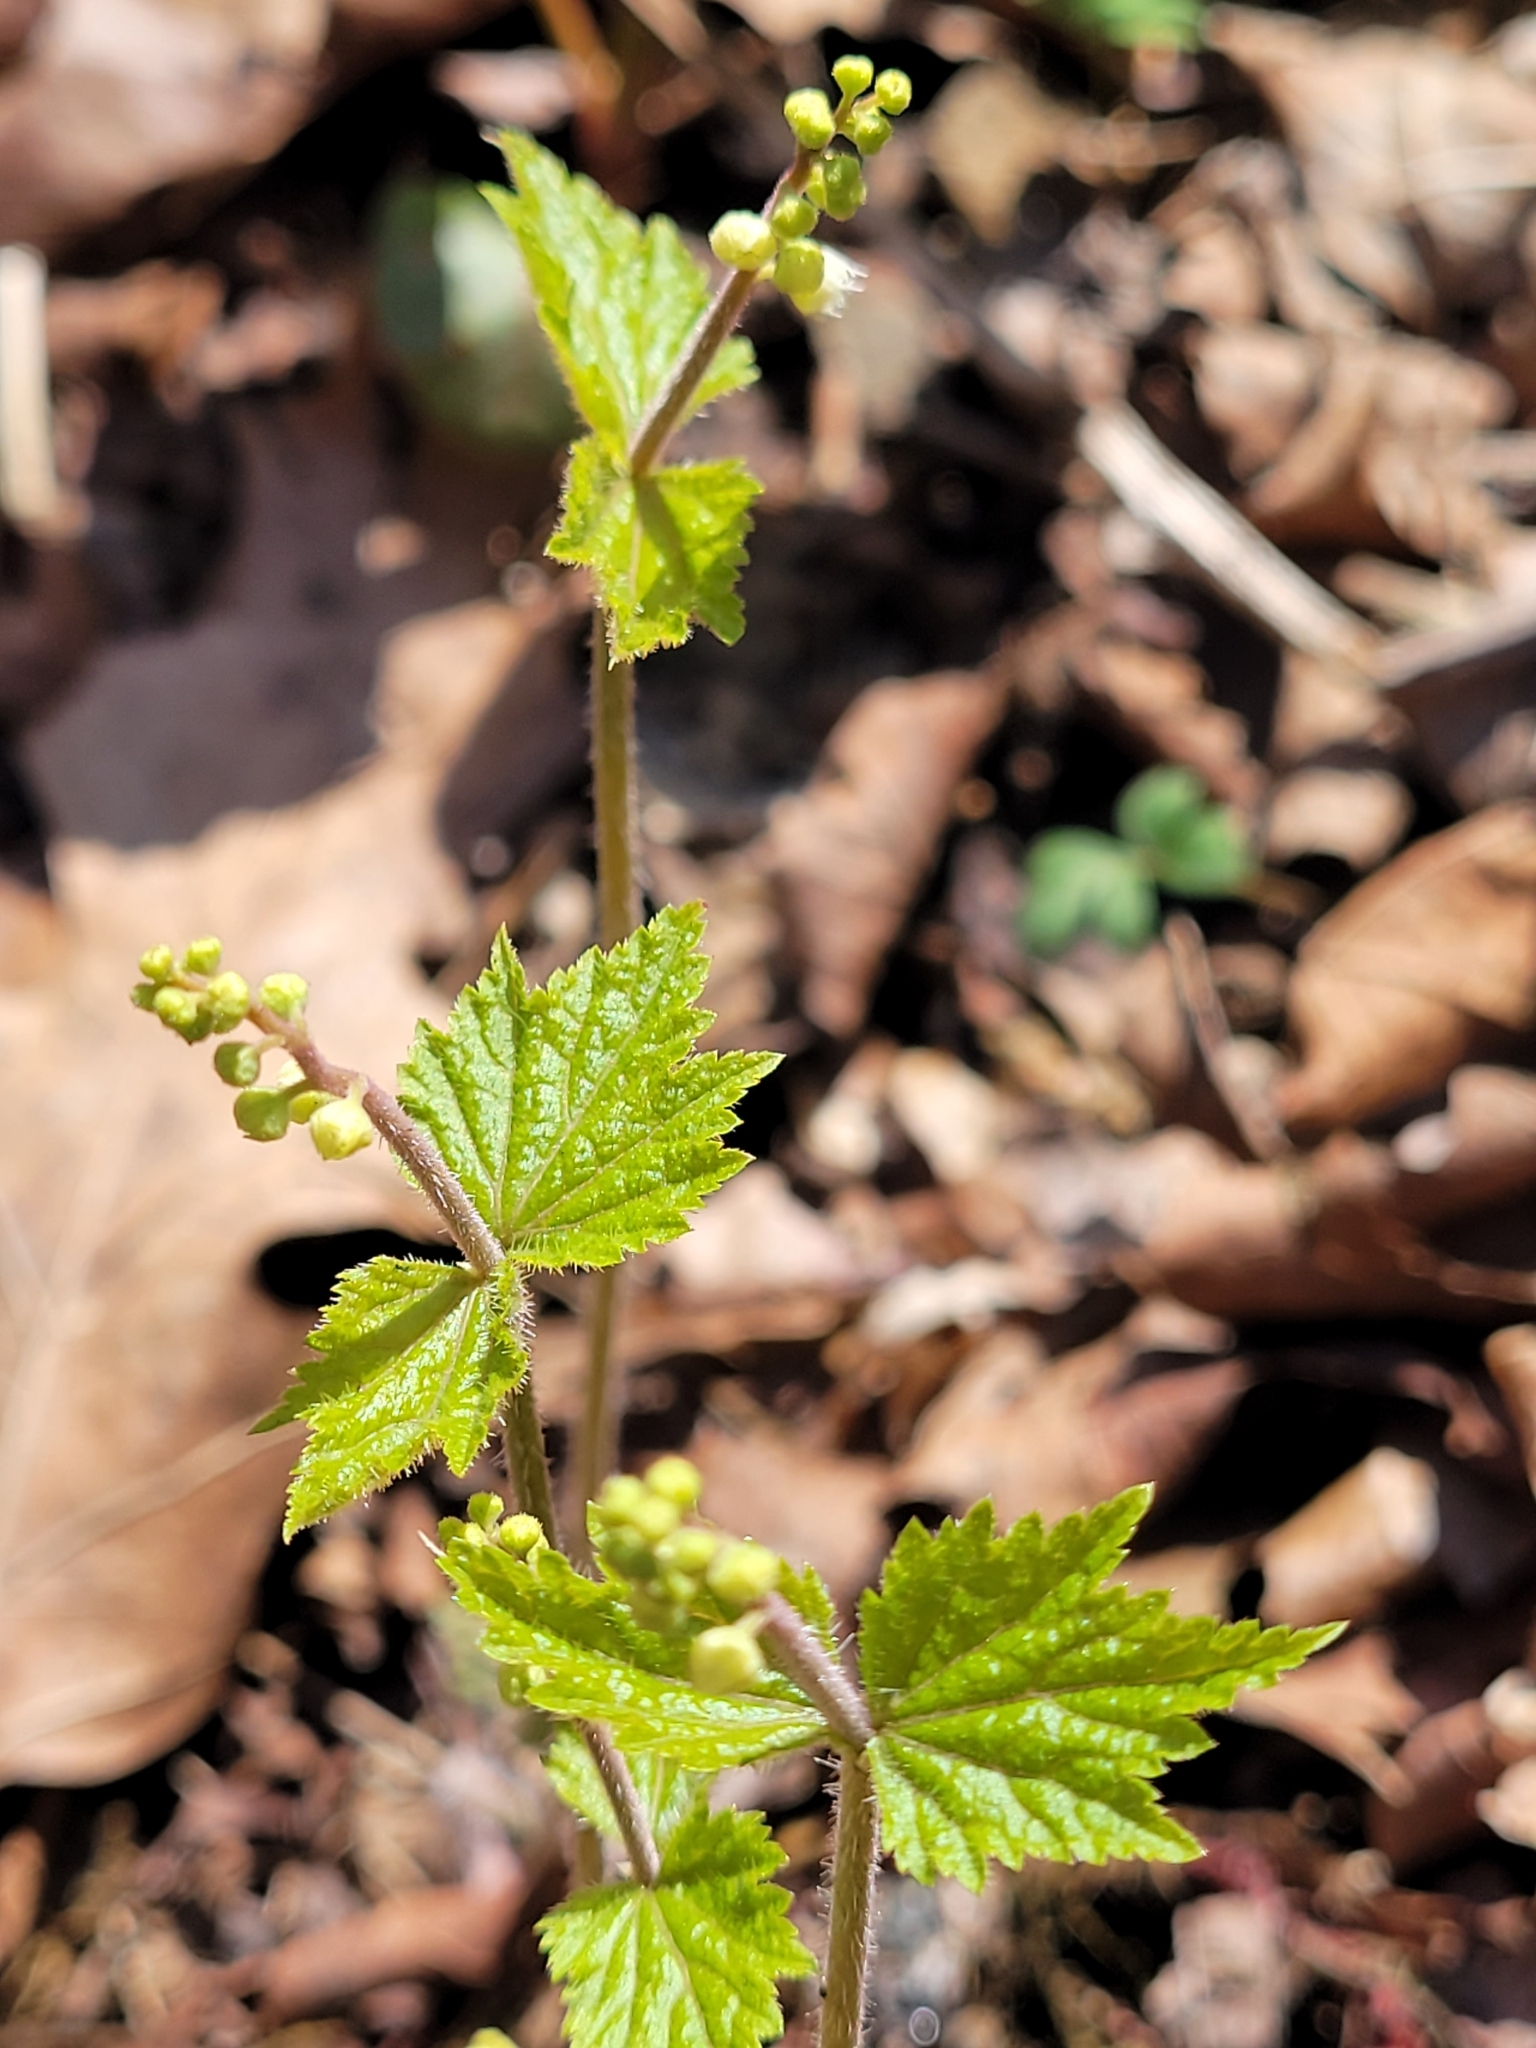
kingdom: Plantae
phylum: Tracheophyta
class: Magnoliopsida
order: Saxifragales
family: Saxifragaceae
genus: Mitella
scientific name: Mitella diphylla
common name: Coolwort
